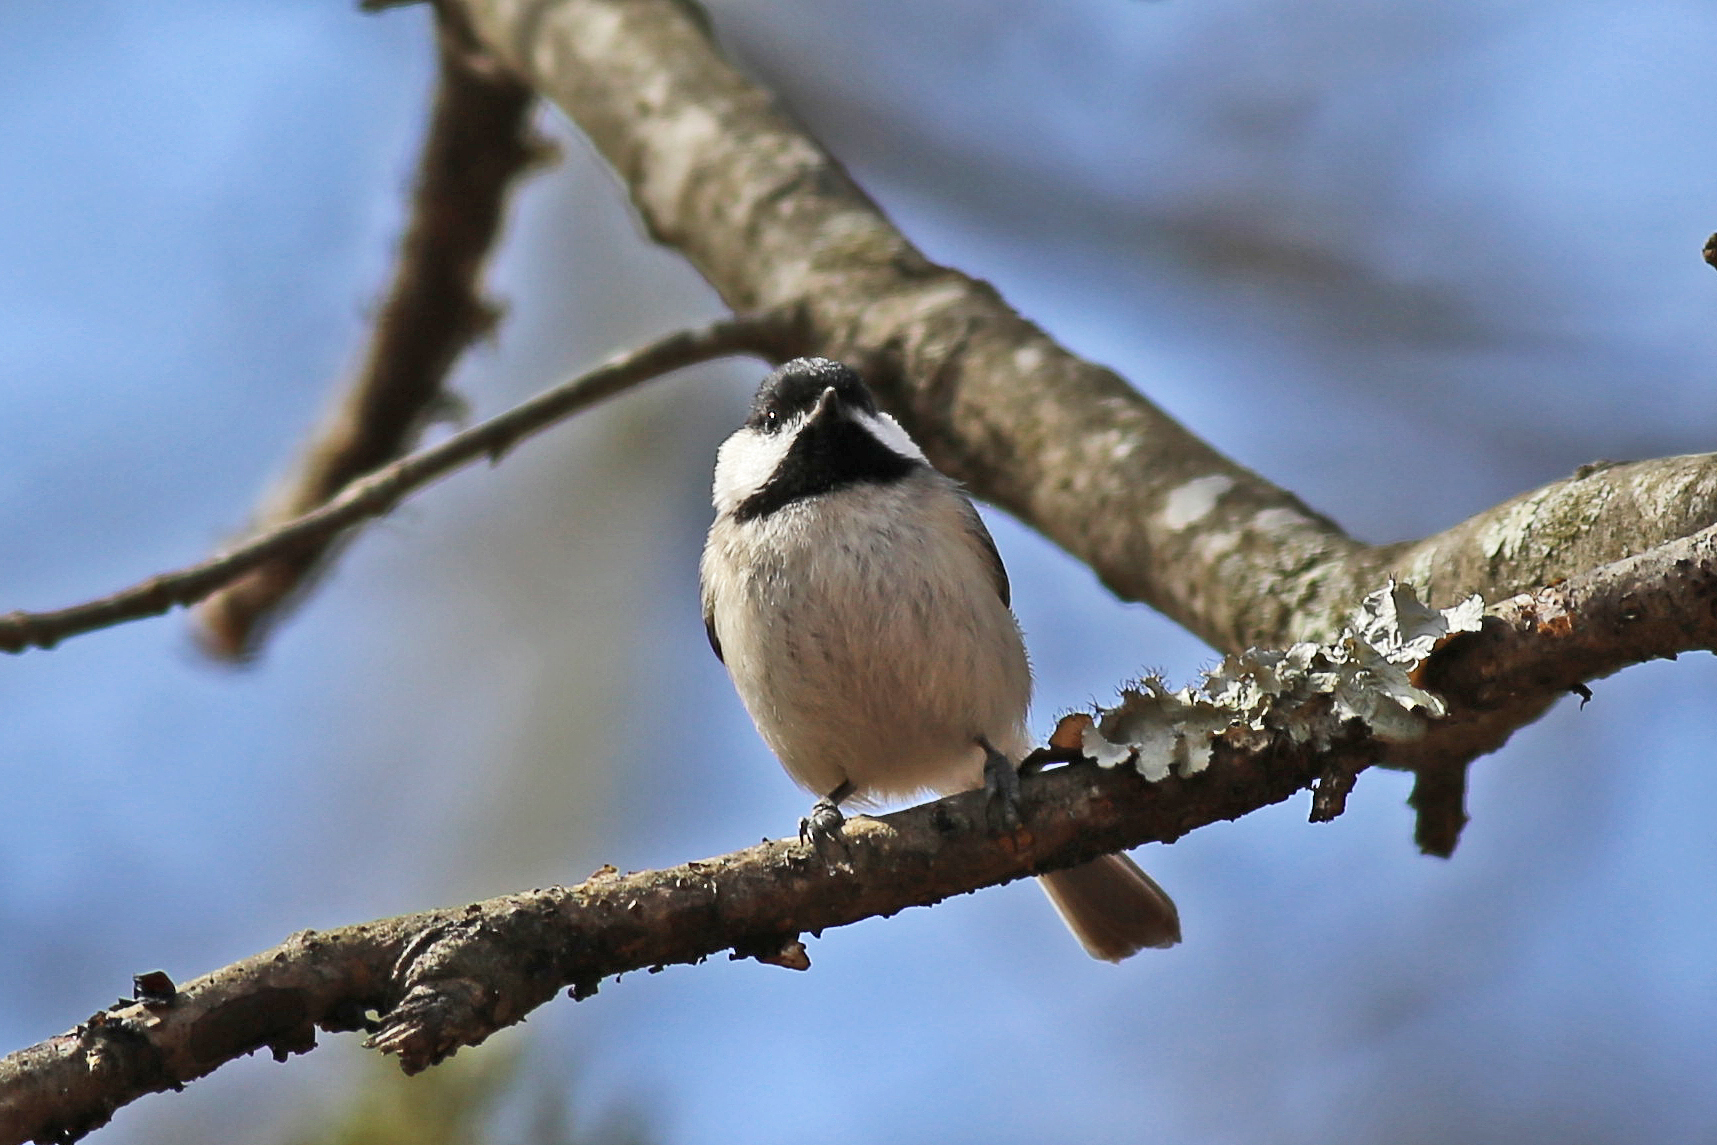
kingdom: Animalia
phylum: Chordata
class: Aves
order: Passeriformes
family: Paridae
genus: Poecile
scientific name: Poecile carolinensis
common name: Carolina chickadee
